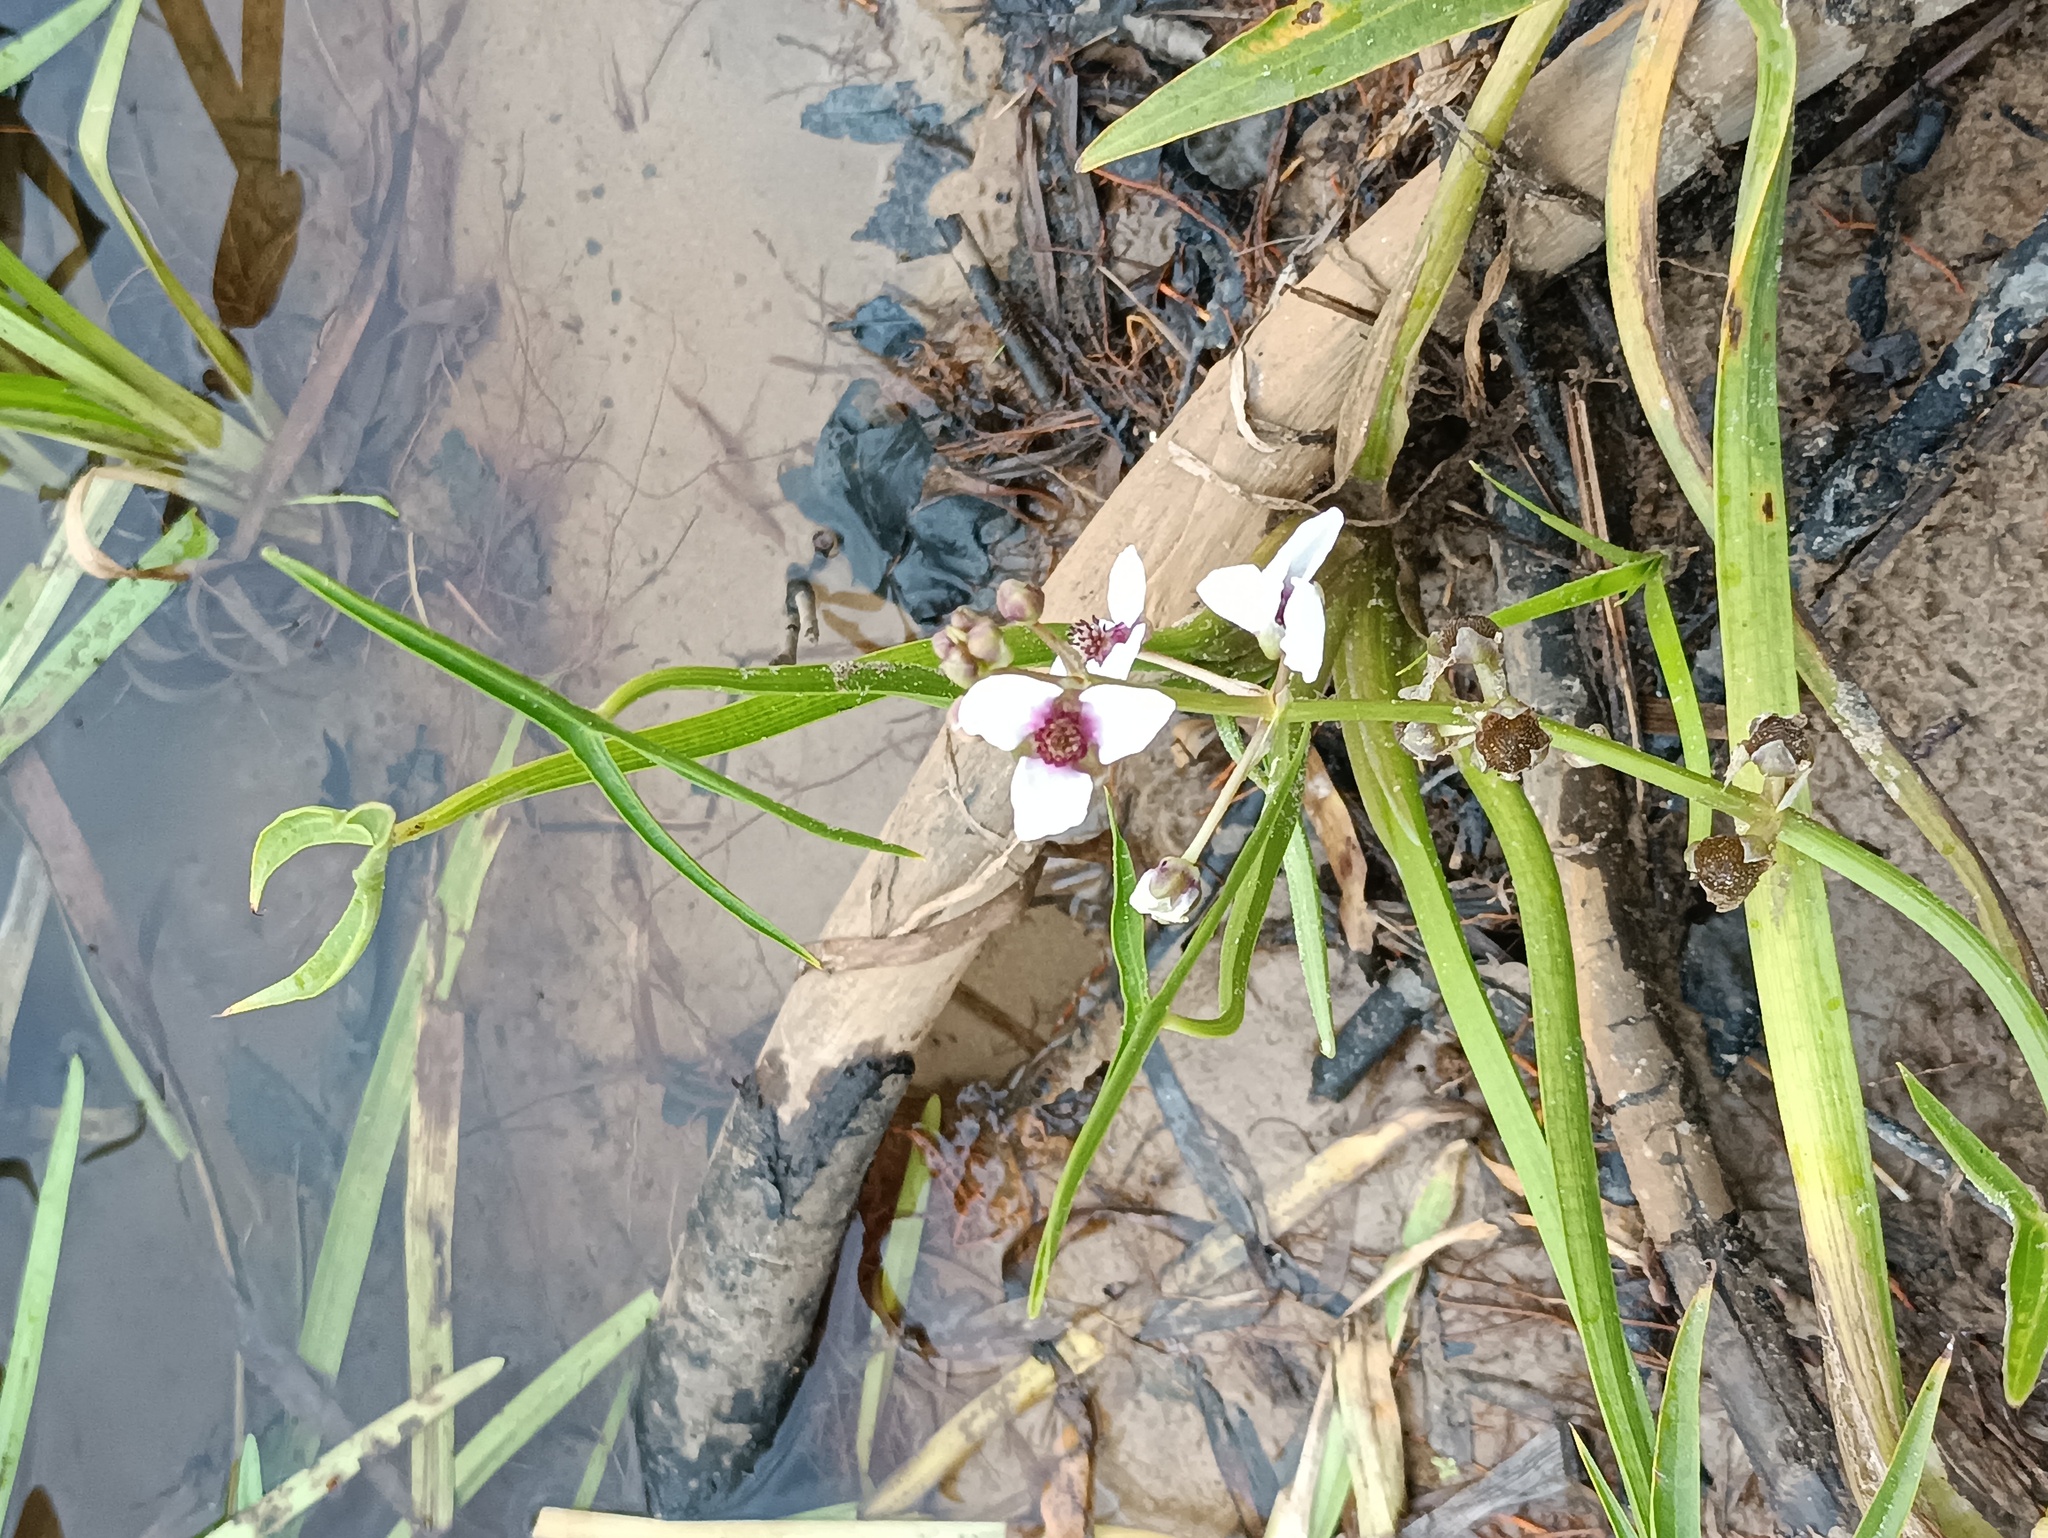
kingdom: Plantae
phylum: Tracheophyta
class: Liliopsida
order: Alismatales
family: Alismataceae
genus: Sagittaria
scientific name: Sagittaria sagittifolia
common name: Arrowhead
